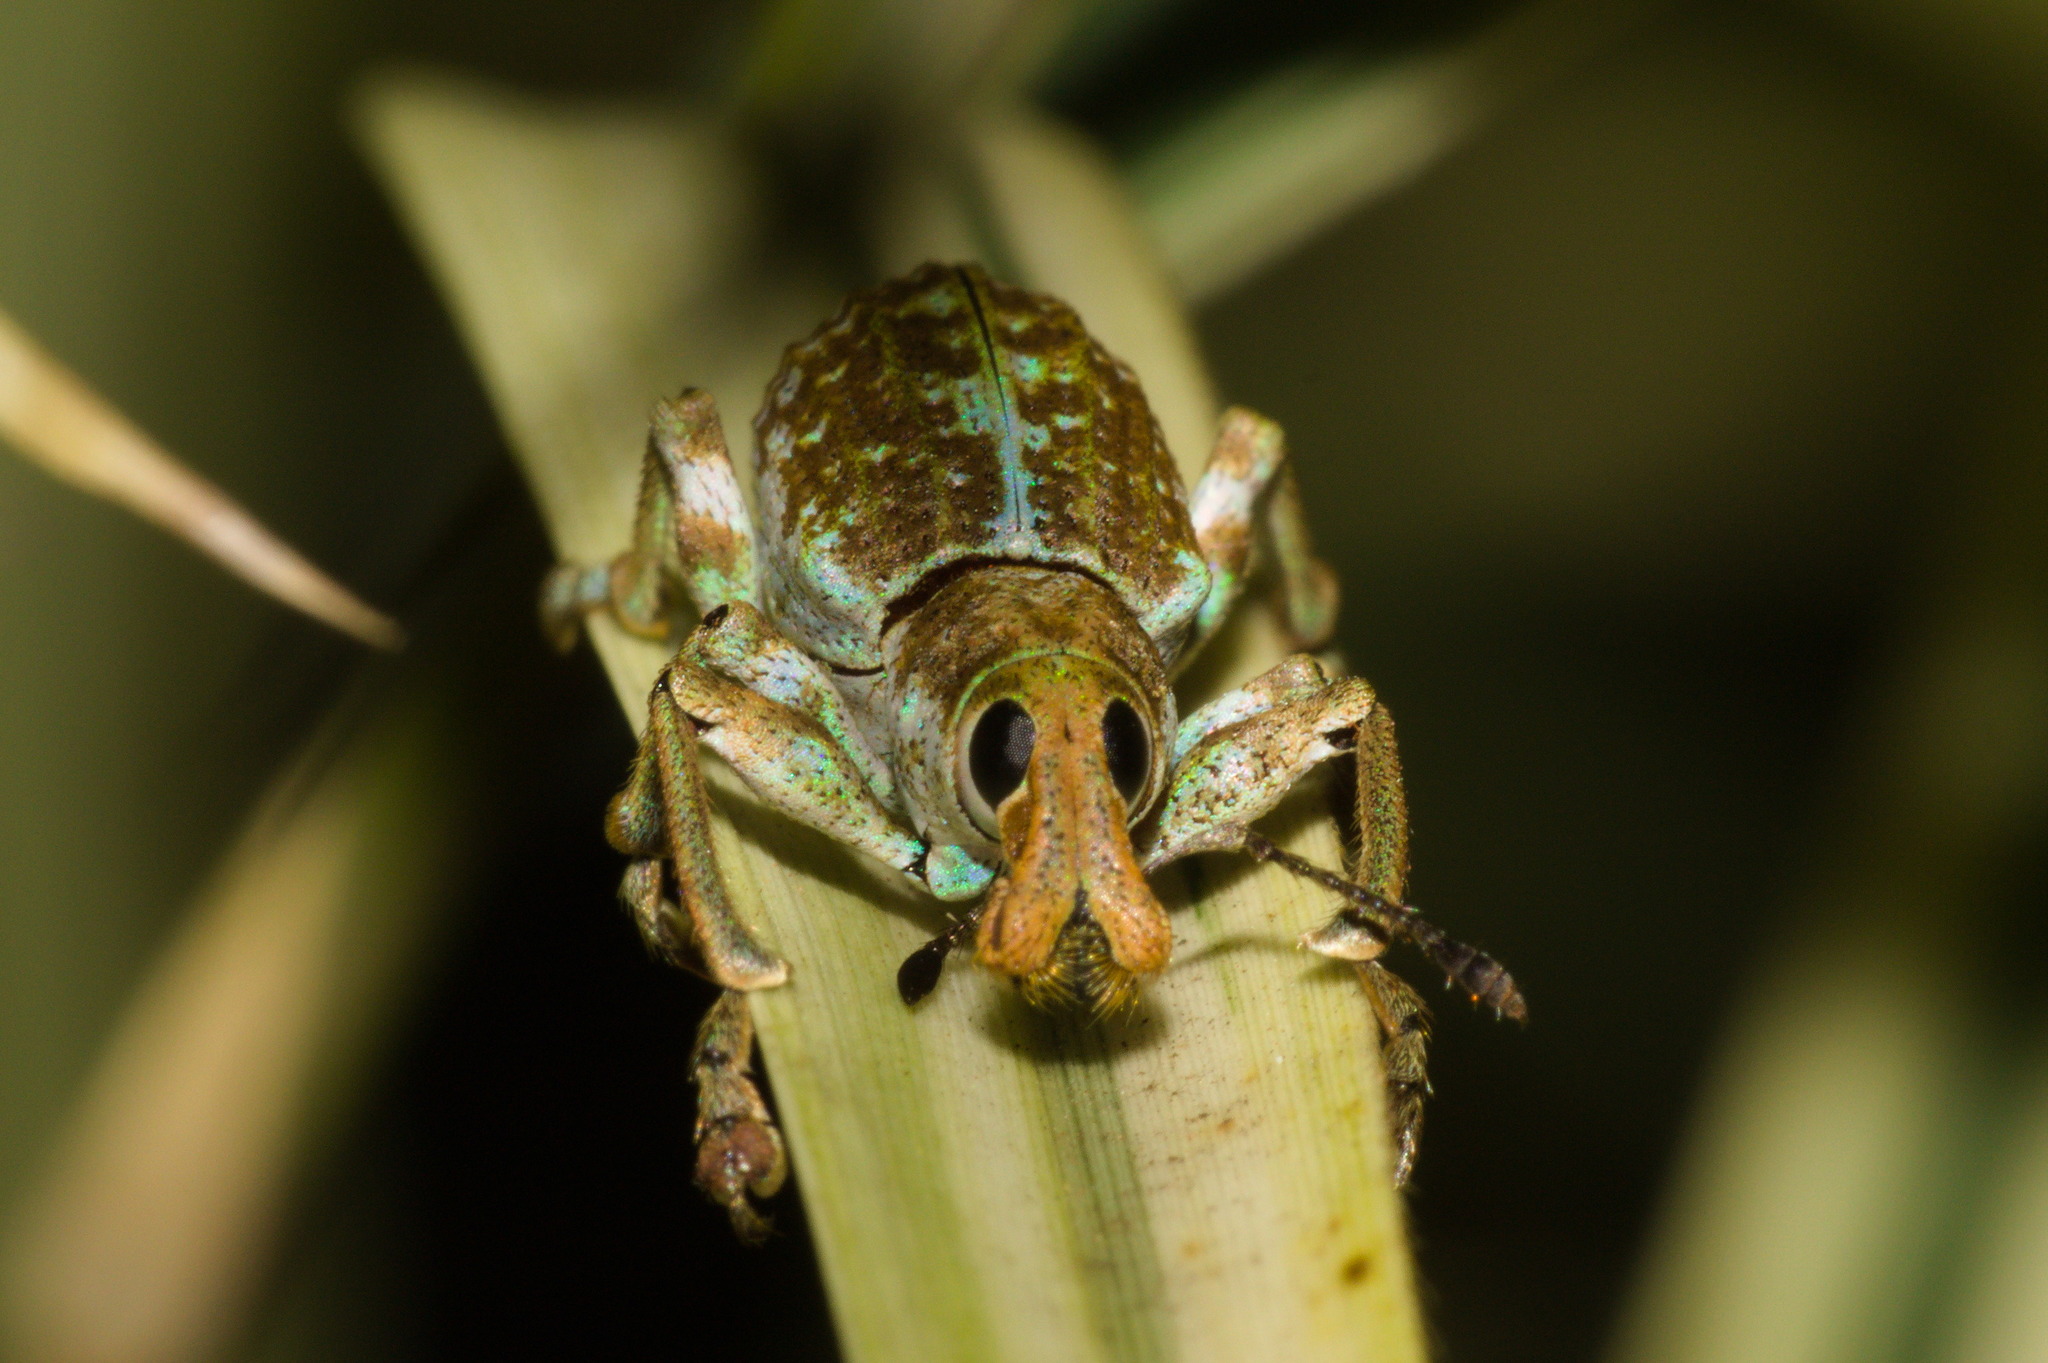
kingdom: Animalia
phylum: Arthropoda
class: Insecta
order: Coleoptera
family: Curculionidae
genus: Rhigus
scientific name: Rhigus faldermanni
